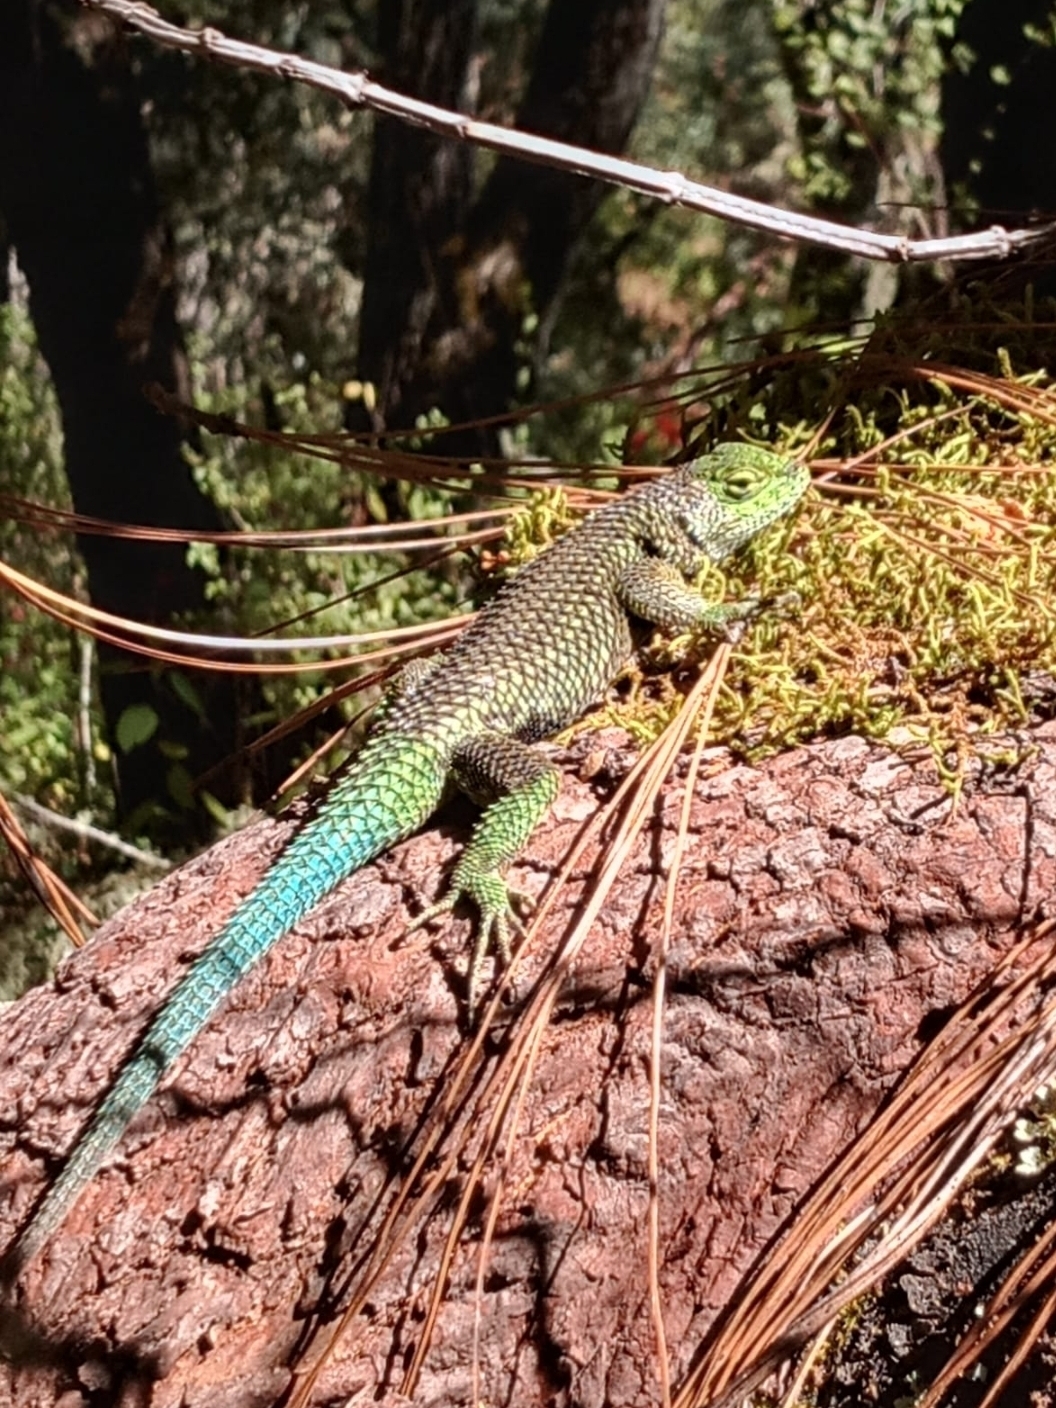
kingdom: Animalia
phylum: Chordata
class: Squamata
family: Phrynosomatidae
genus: Sceloporus
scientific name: Sceloporus formosus
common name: Mexican emerald spiny lizard
